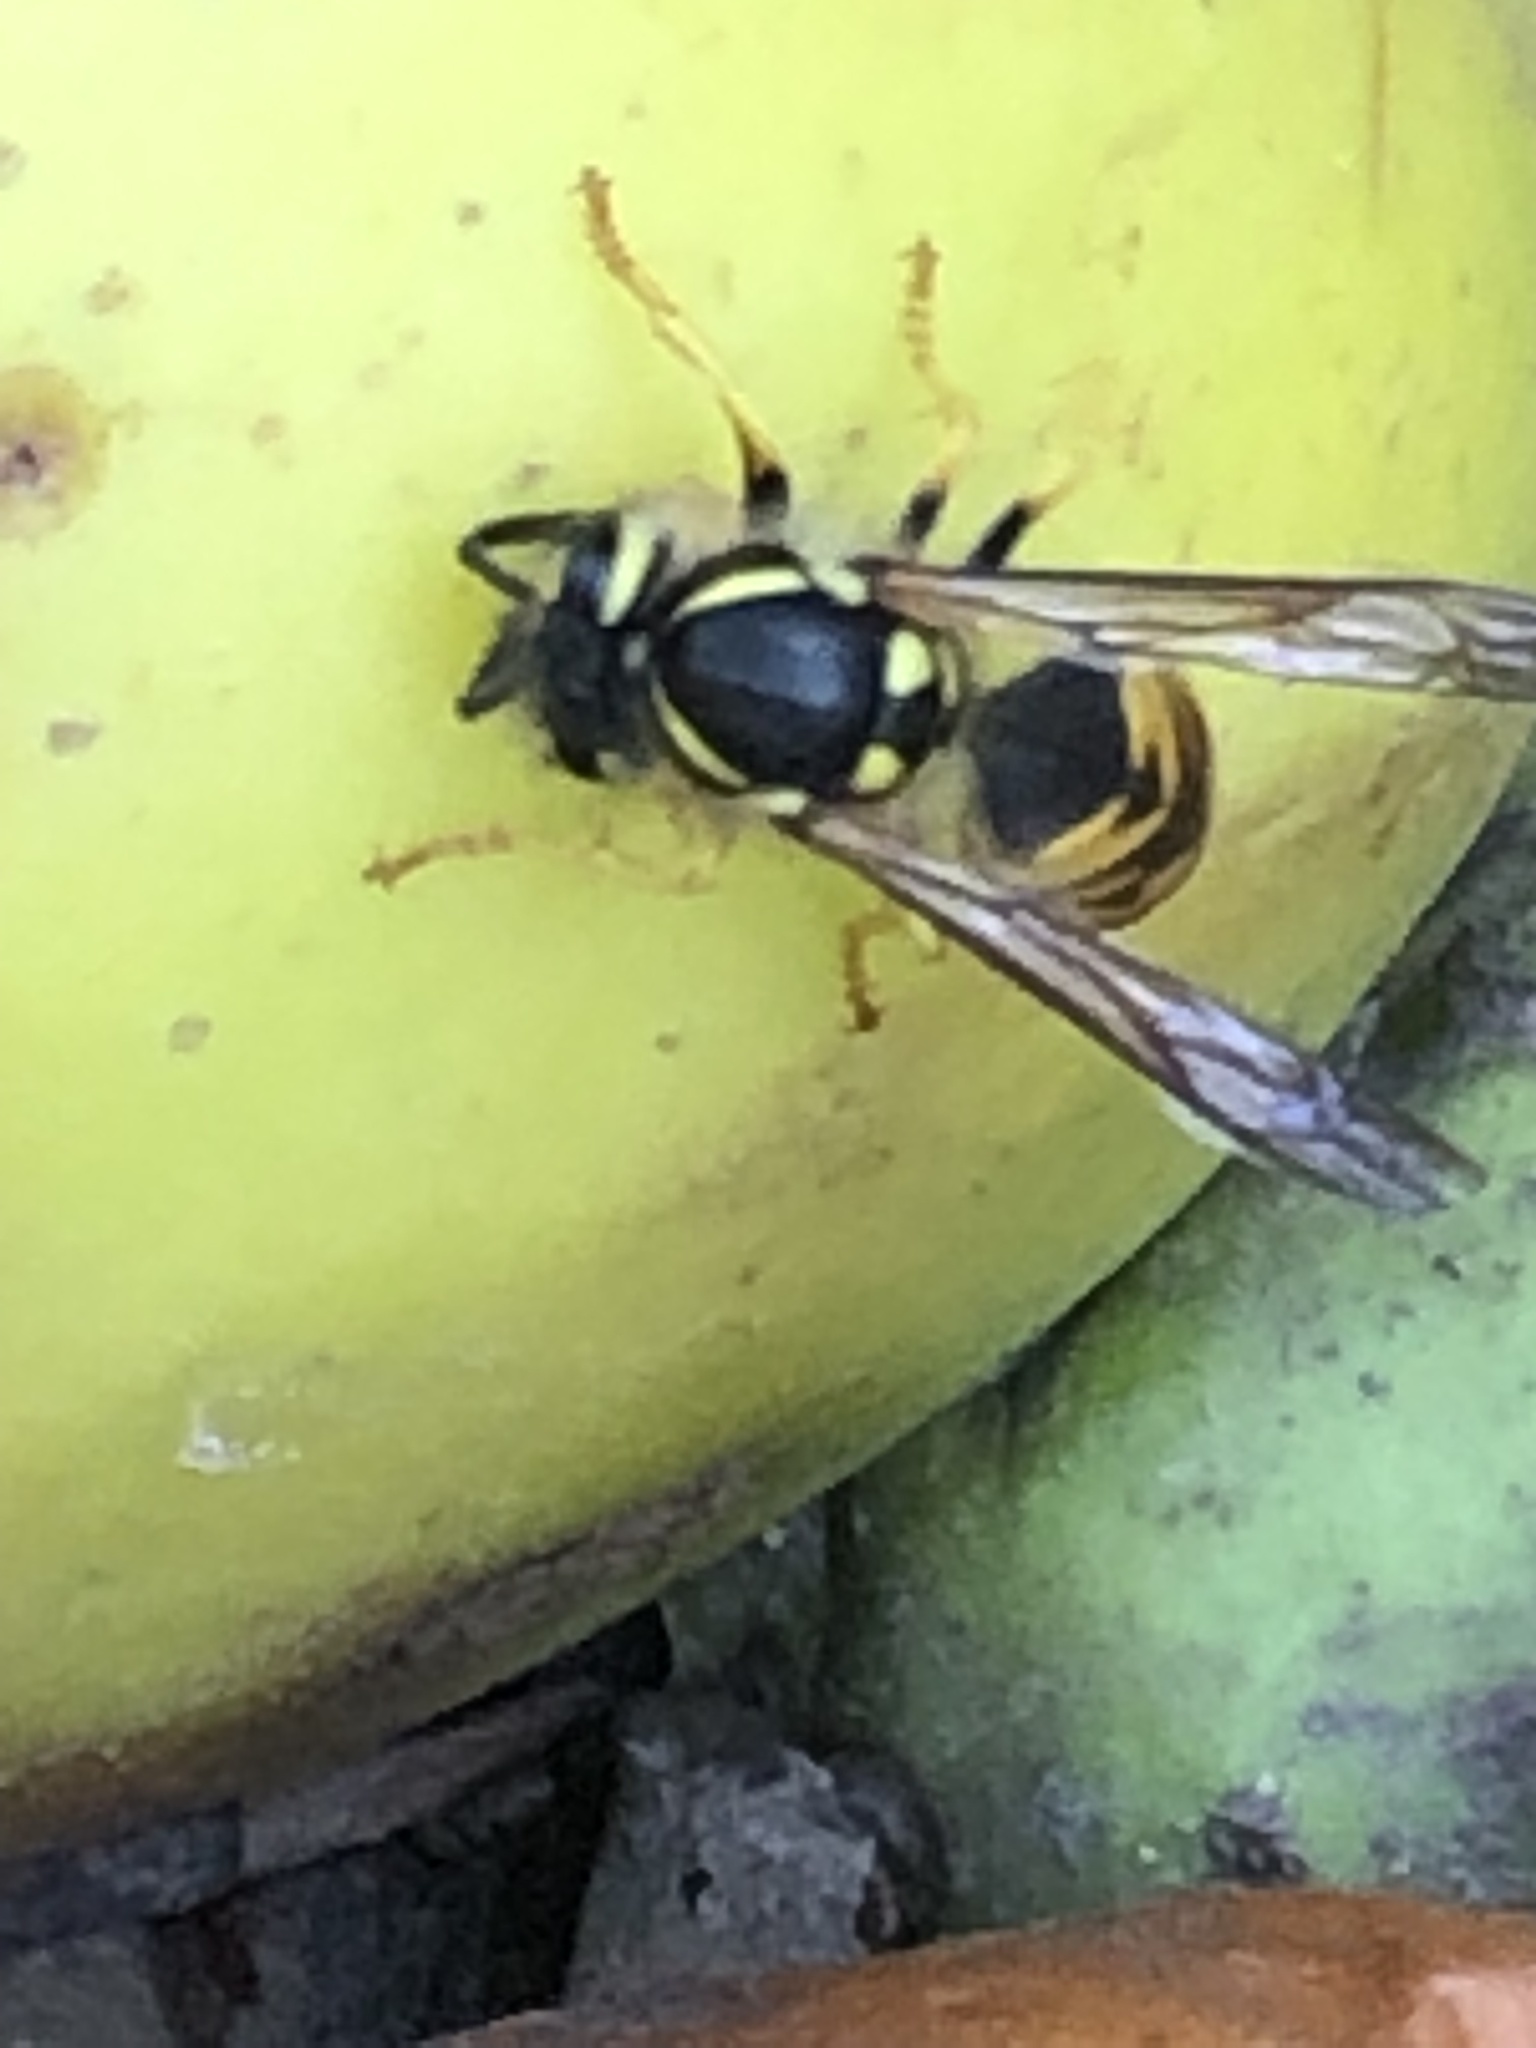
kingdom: Animalia
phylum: Arthropoda
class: Insecta
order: Hymenoptera
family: Vespidae
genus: Vespula
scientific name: Vespula germanica
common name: German wasp
